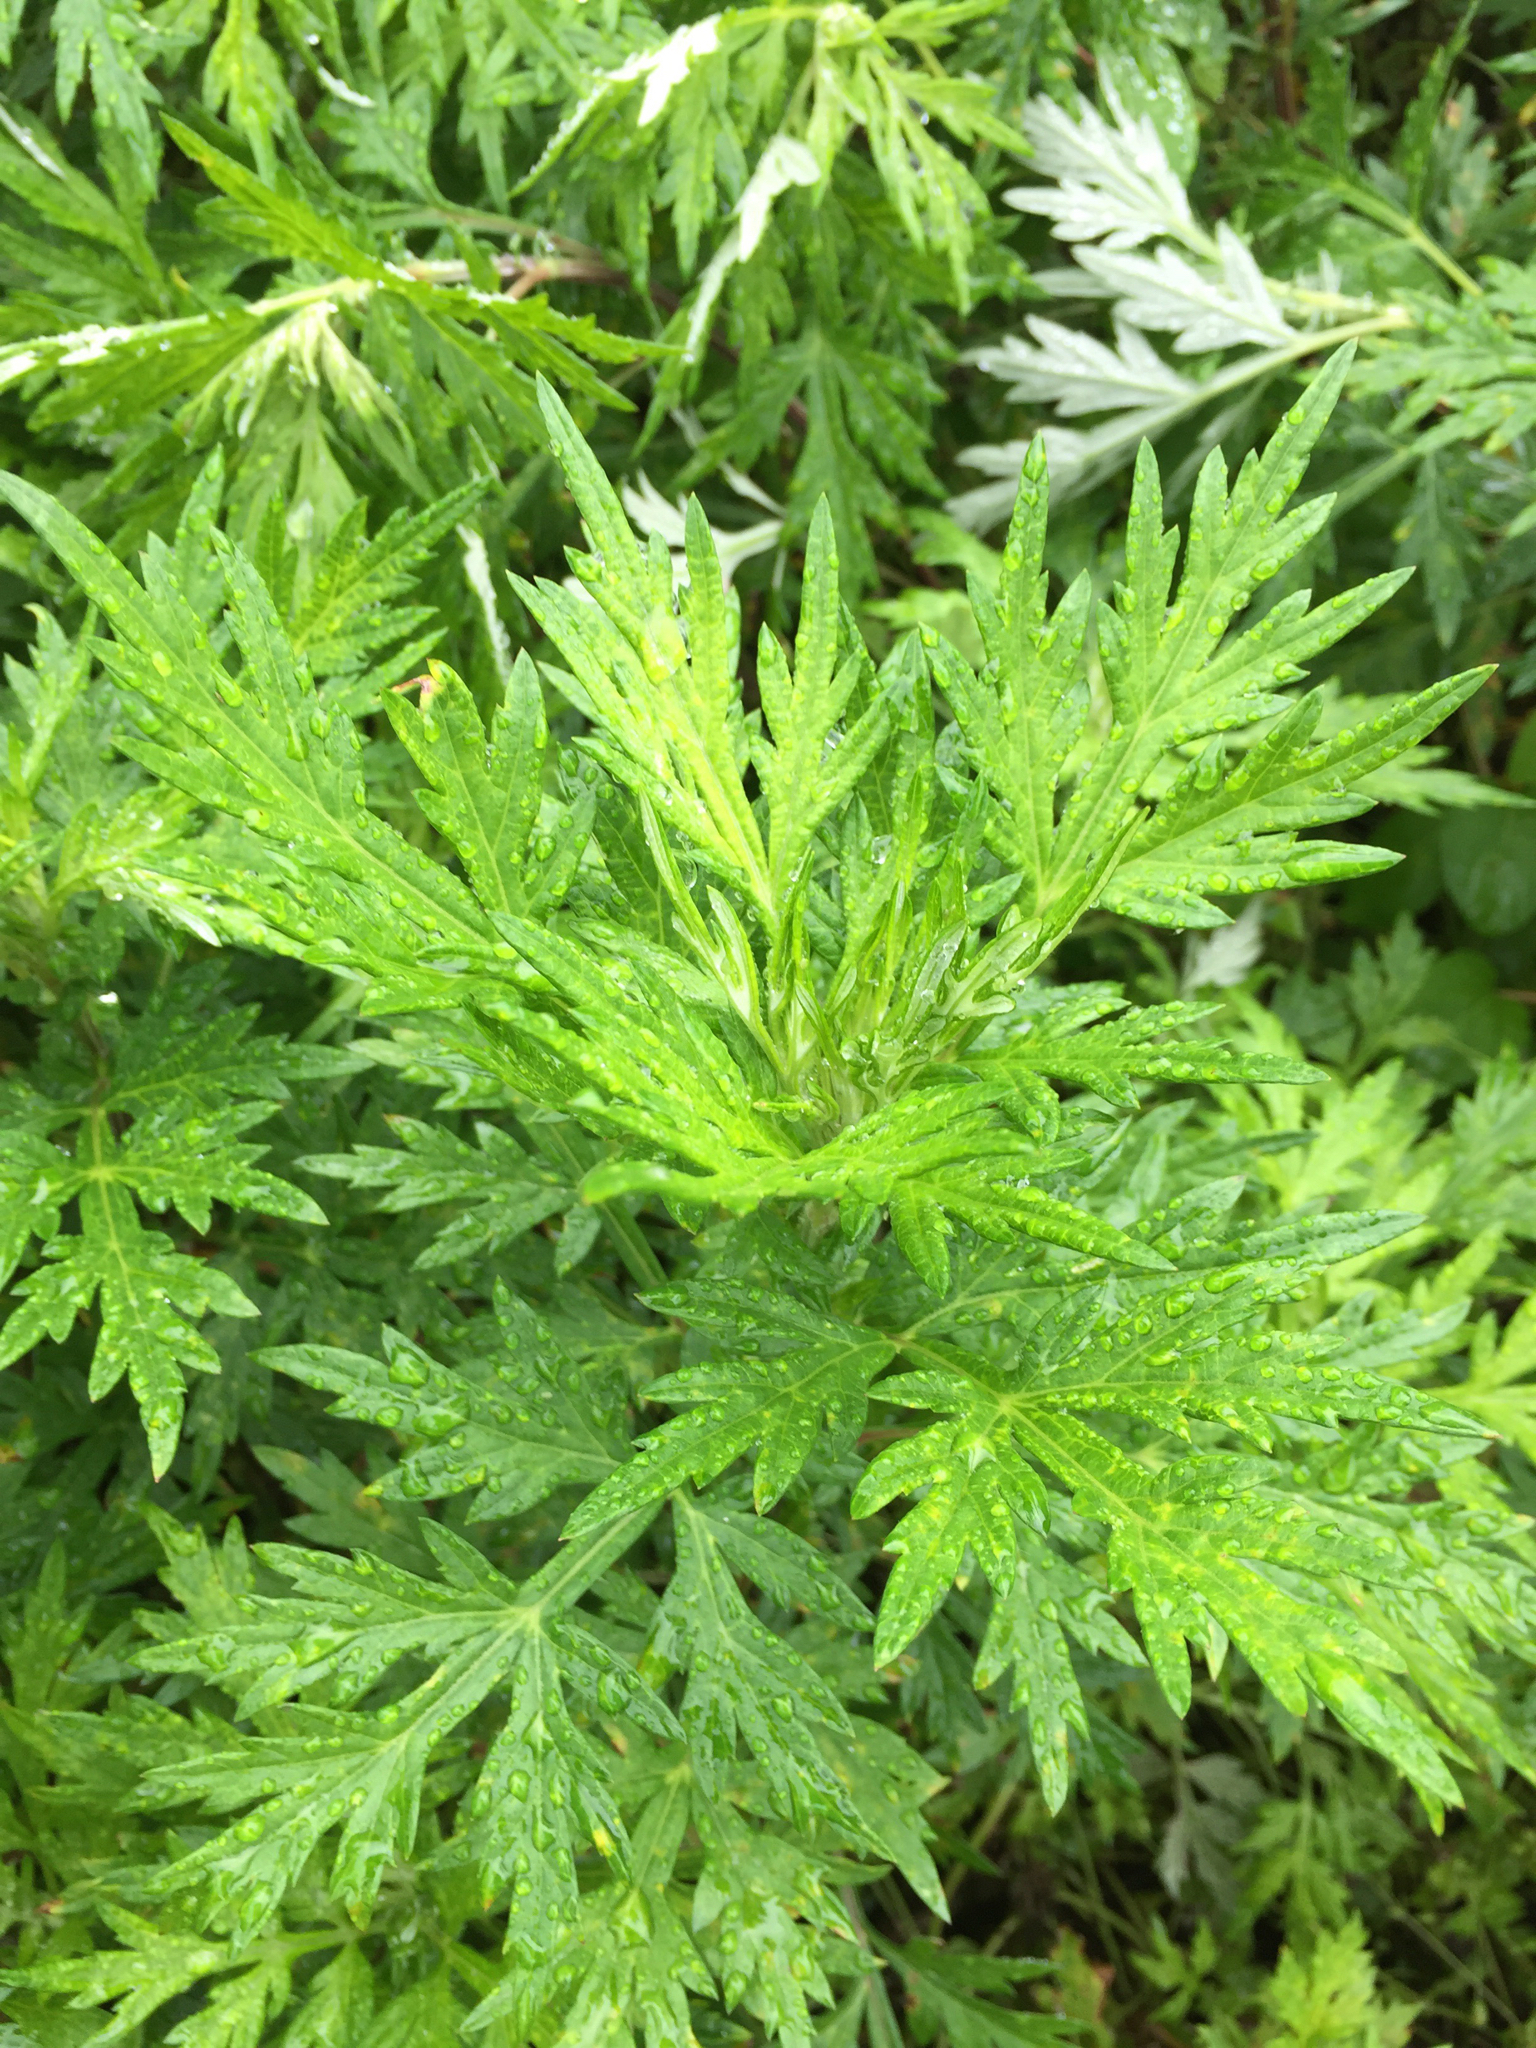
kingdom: Plantae
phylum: Tracheophyta
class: Magnoliopsida
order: Asterales
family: Asteraceae
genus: Artemisia
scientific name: Artemisia vulgaris
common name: Mugwort
